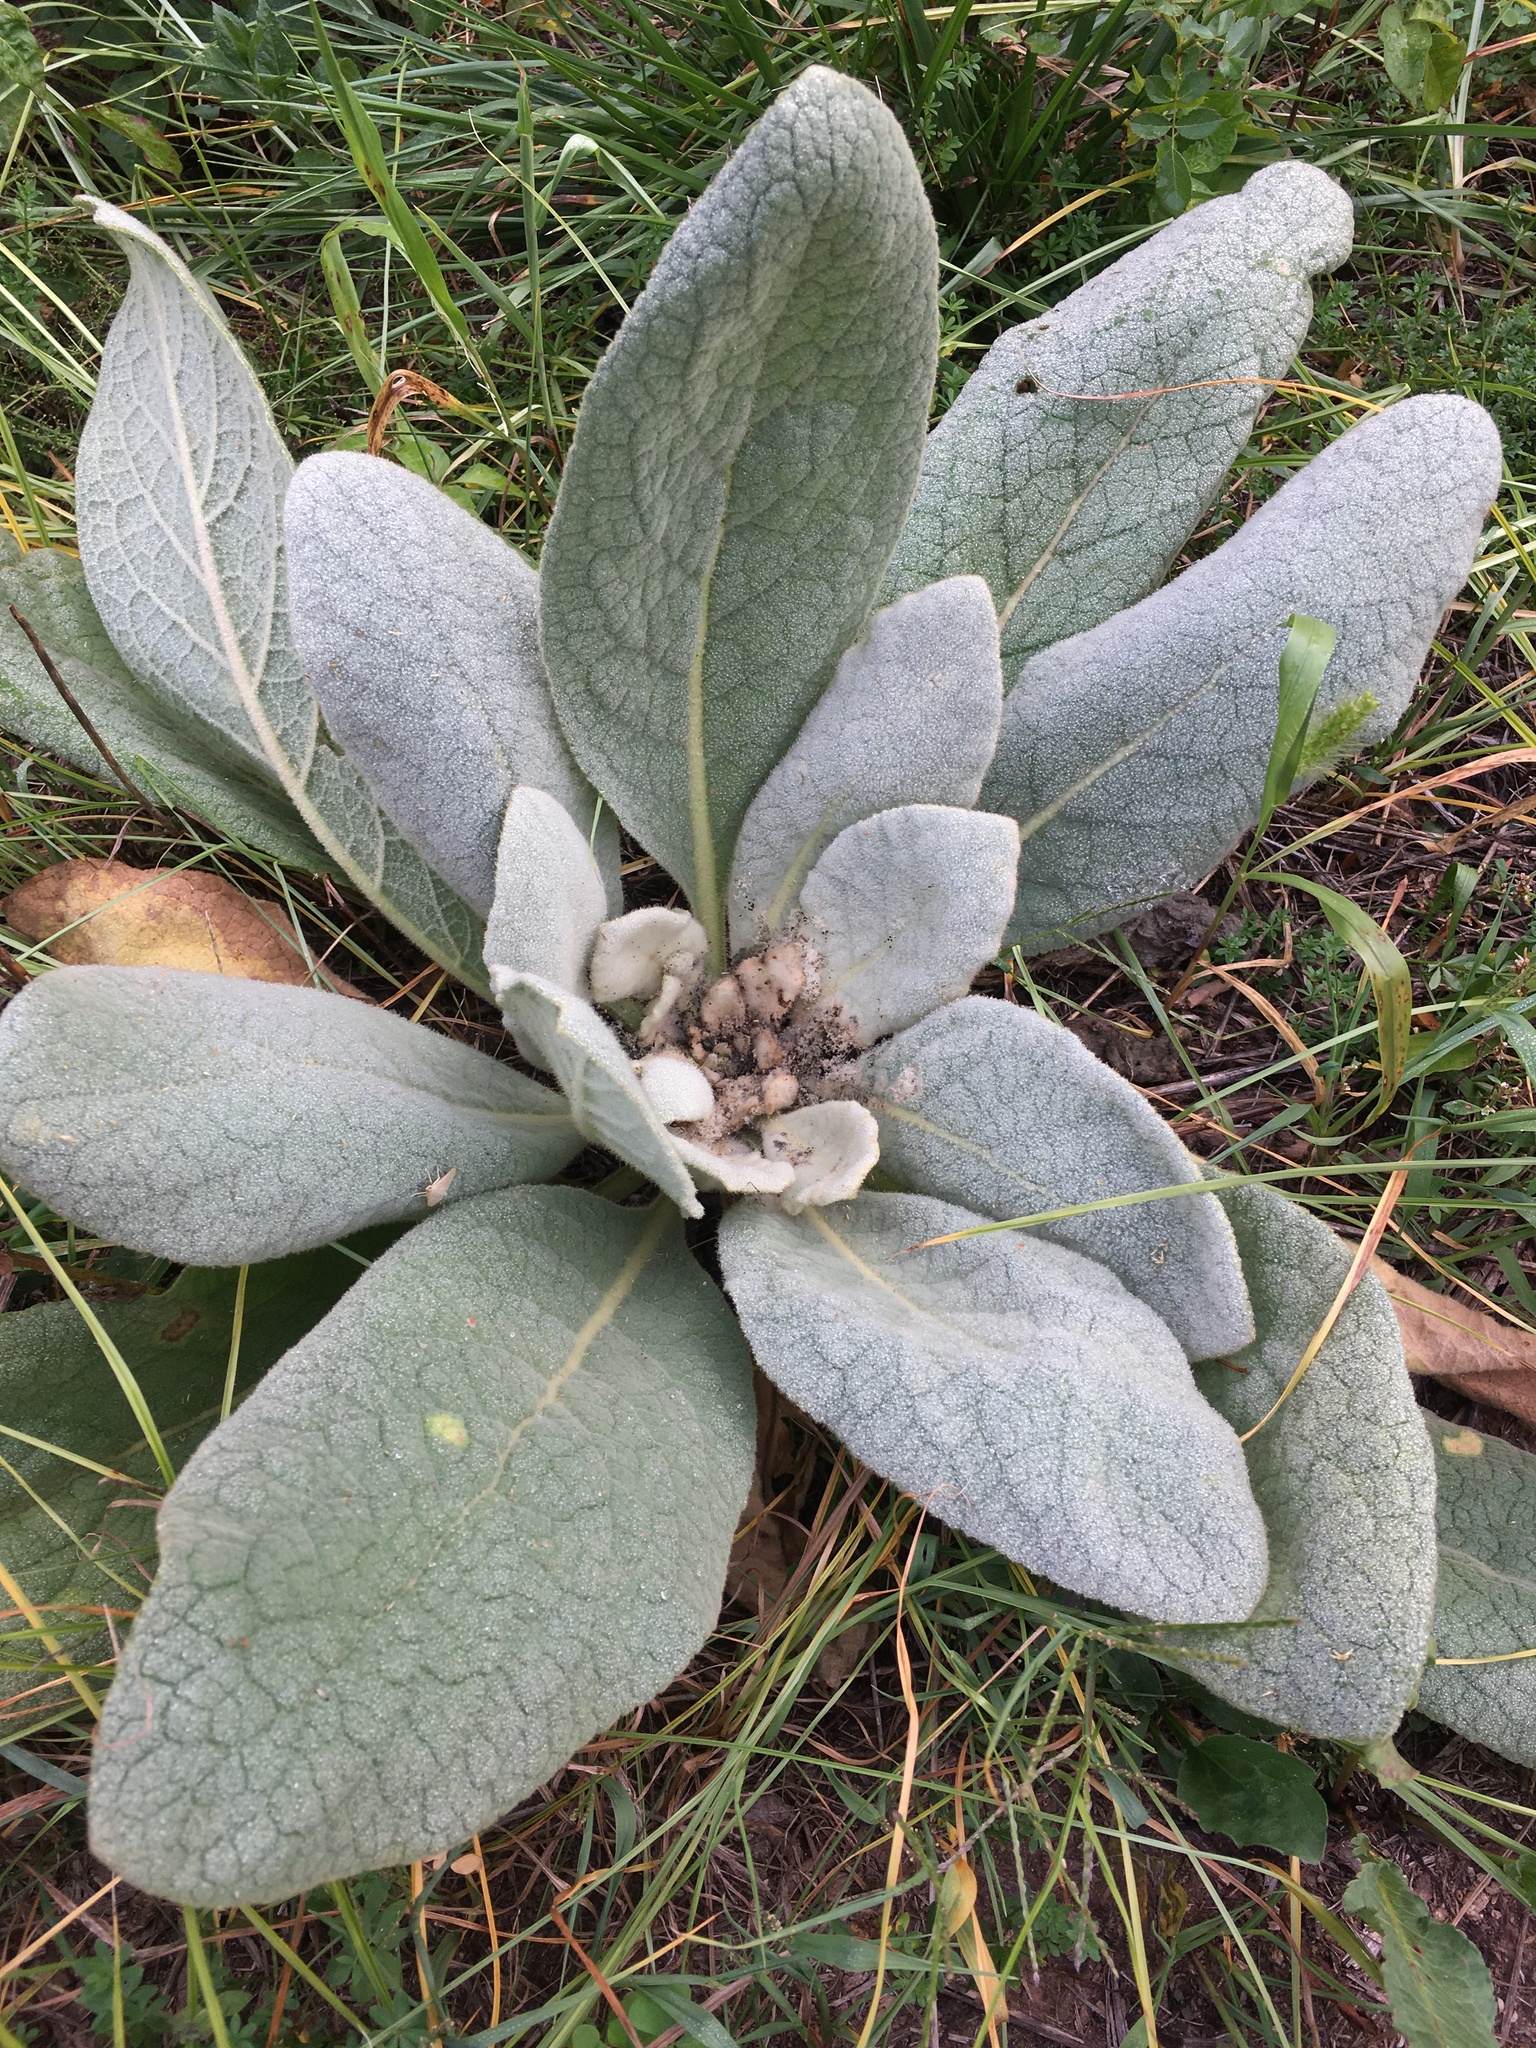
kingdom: Plantae
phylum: Tracheophyta
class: Magnoliopsida
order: Lamiales
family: Scrophulariaceae
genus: Verbascum
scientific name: Verbascum thapsus
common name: Common mullein
